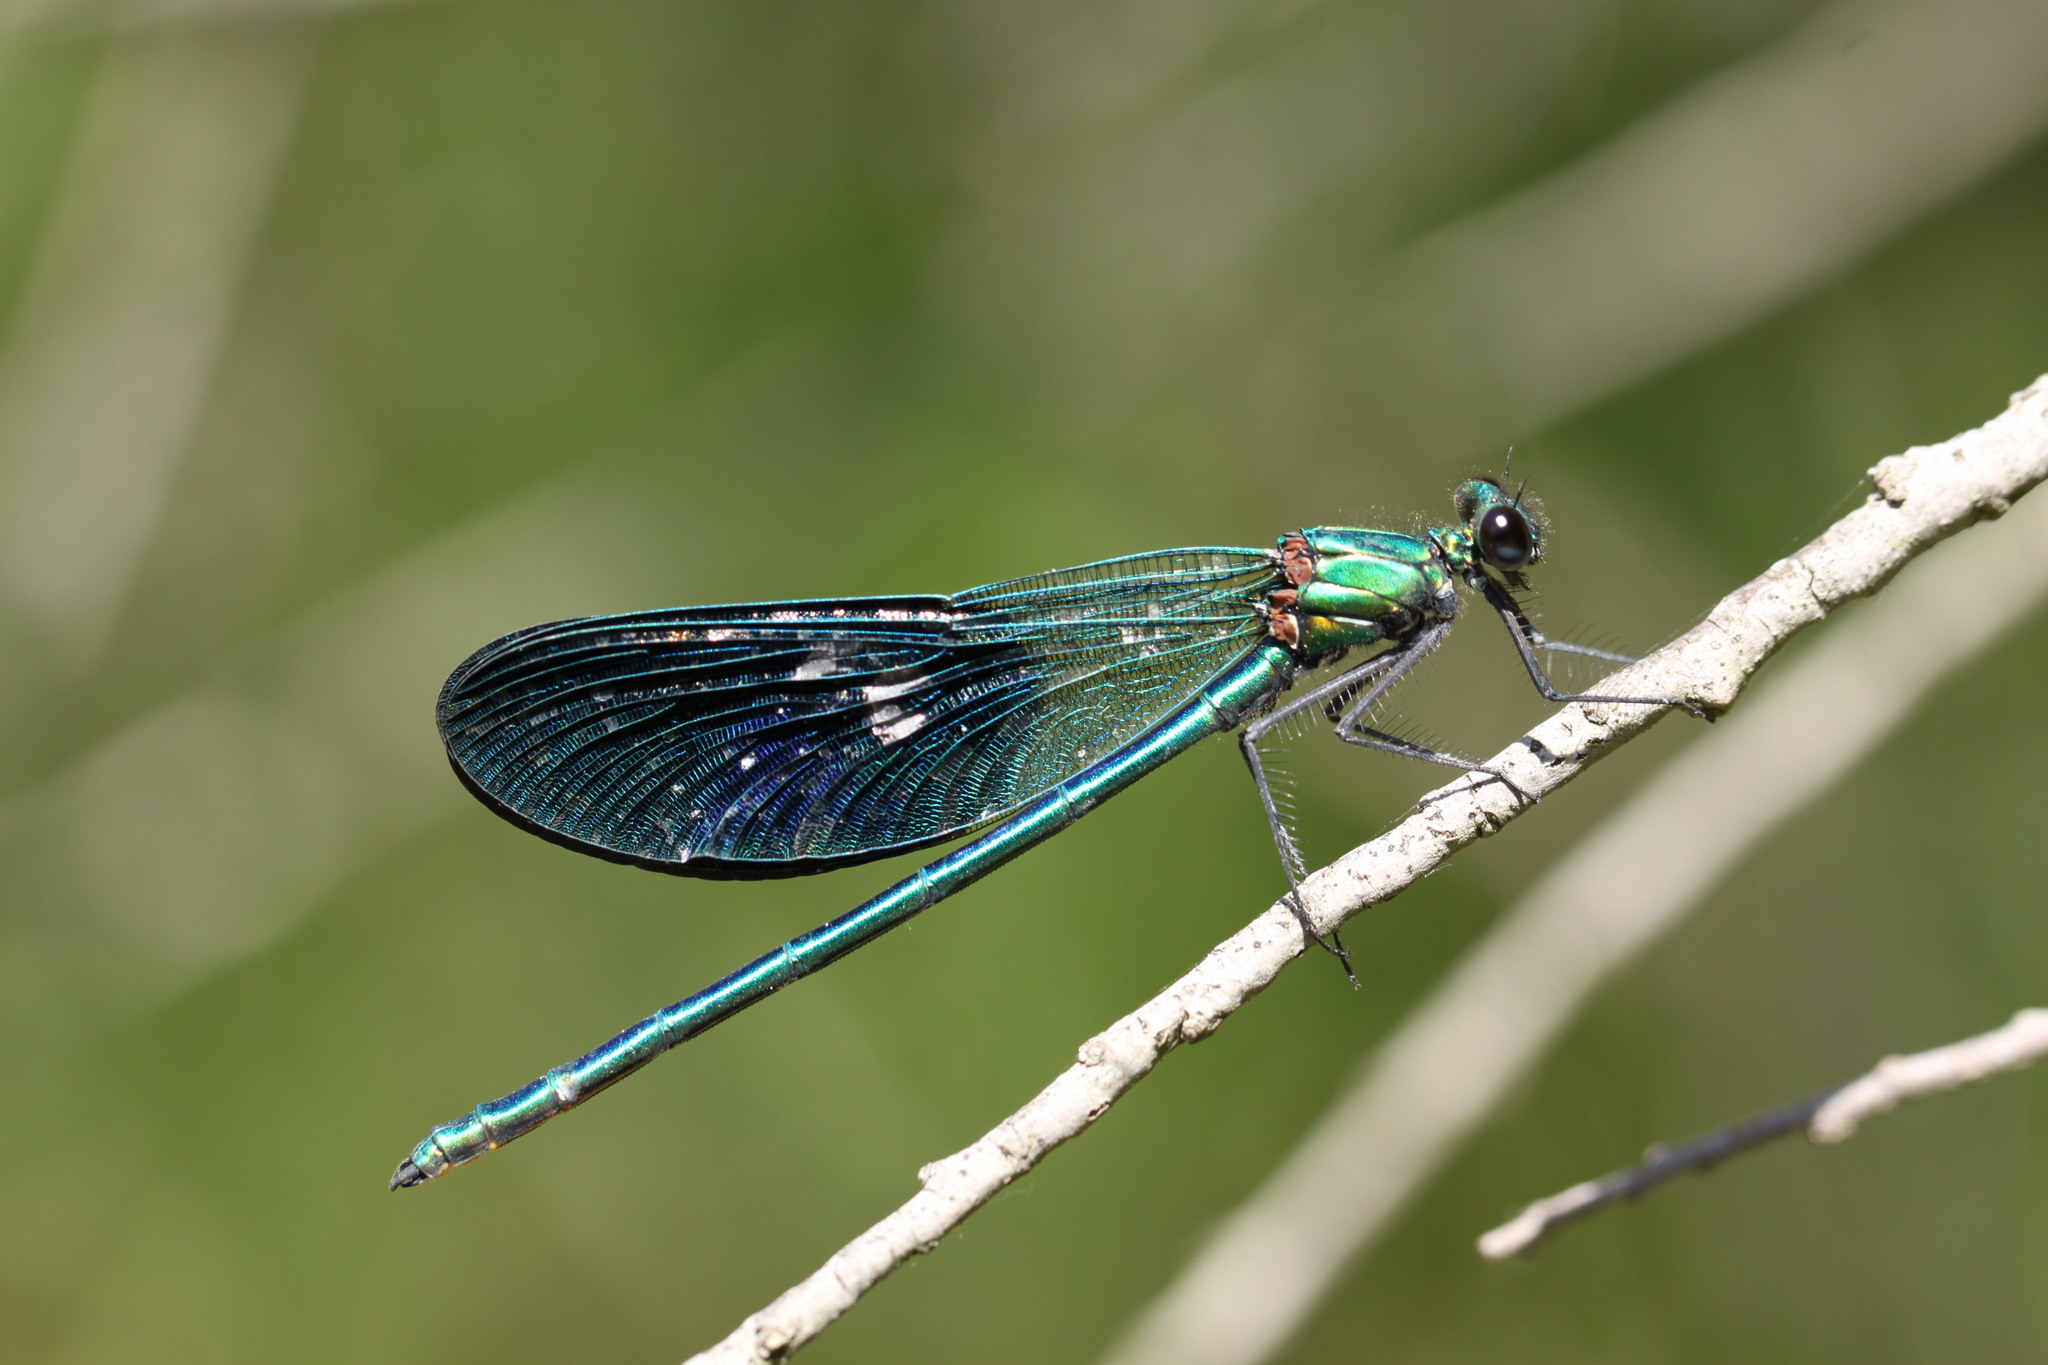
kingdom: Animalia
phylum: Arthropoda
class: Insecta
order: Odonata
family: Calopterygidae
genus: Calopteryx
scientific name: Calopteryx splendens
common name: Banded demoiselle
